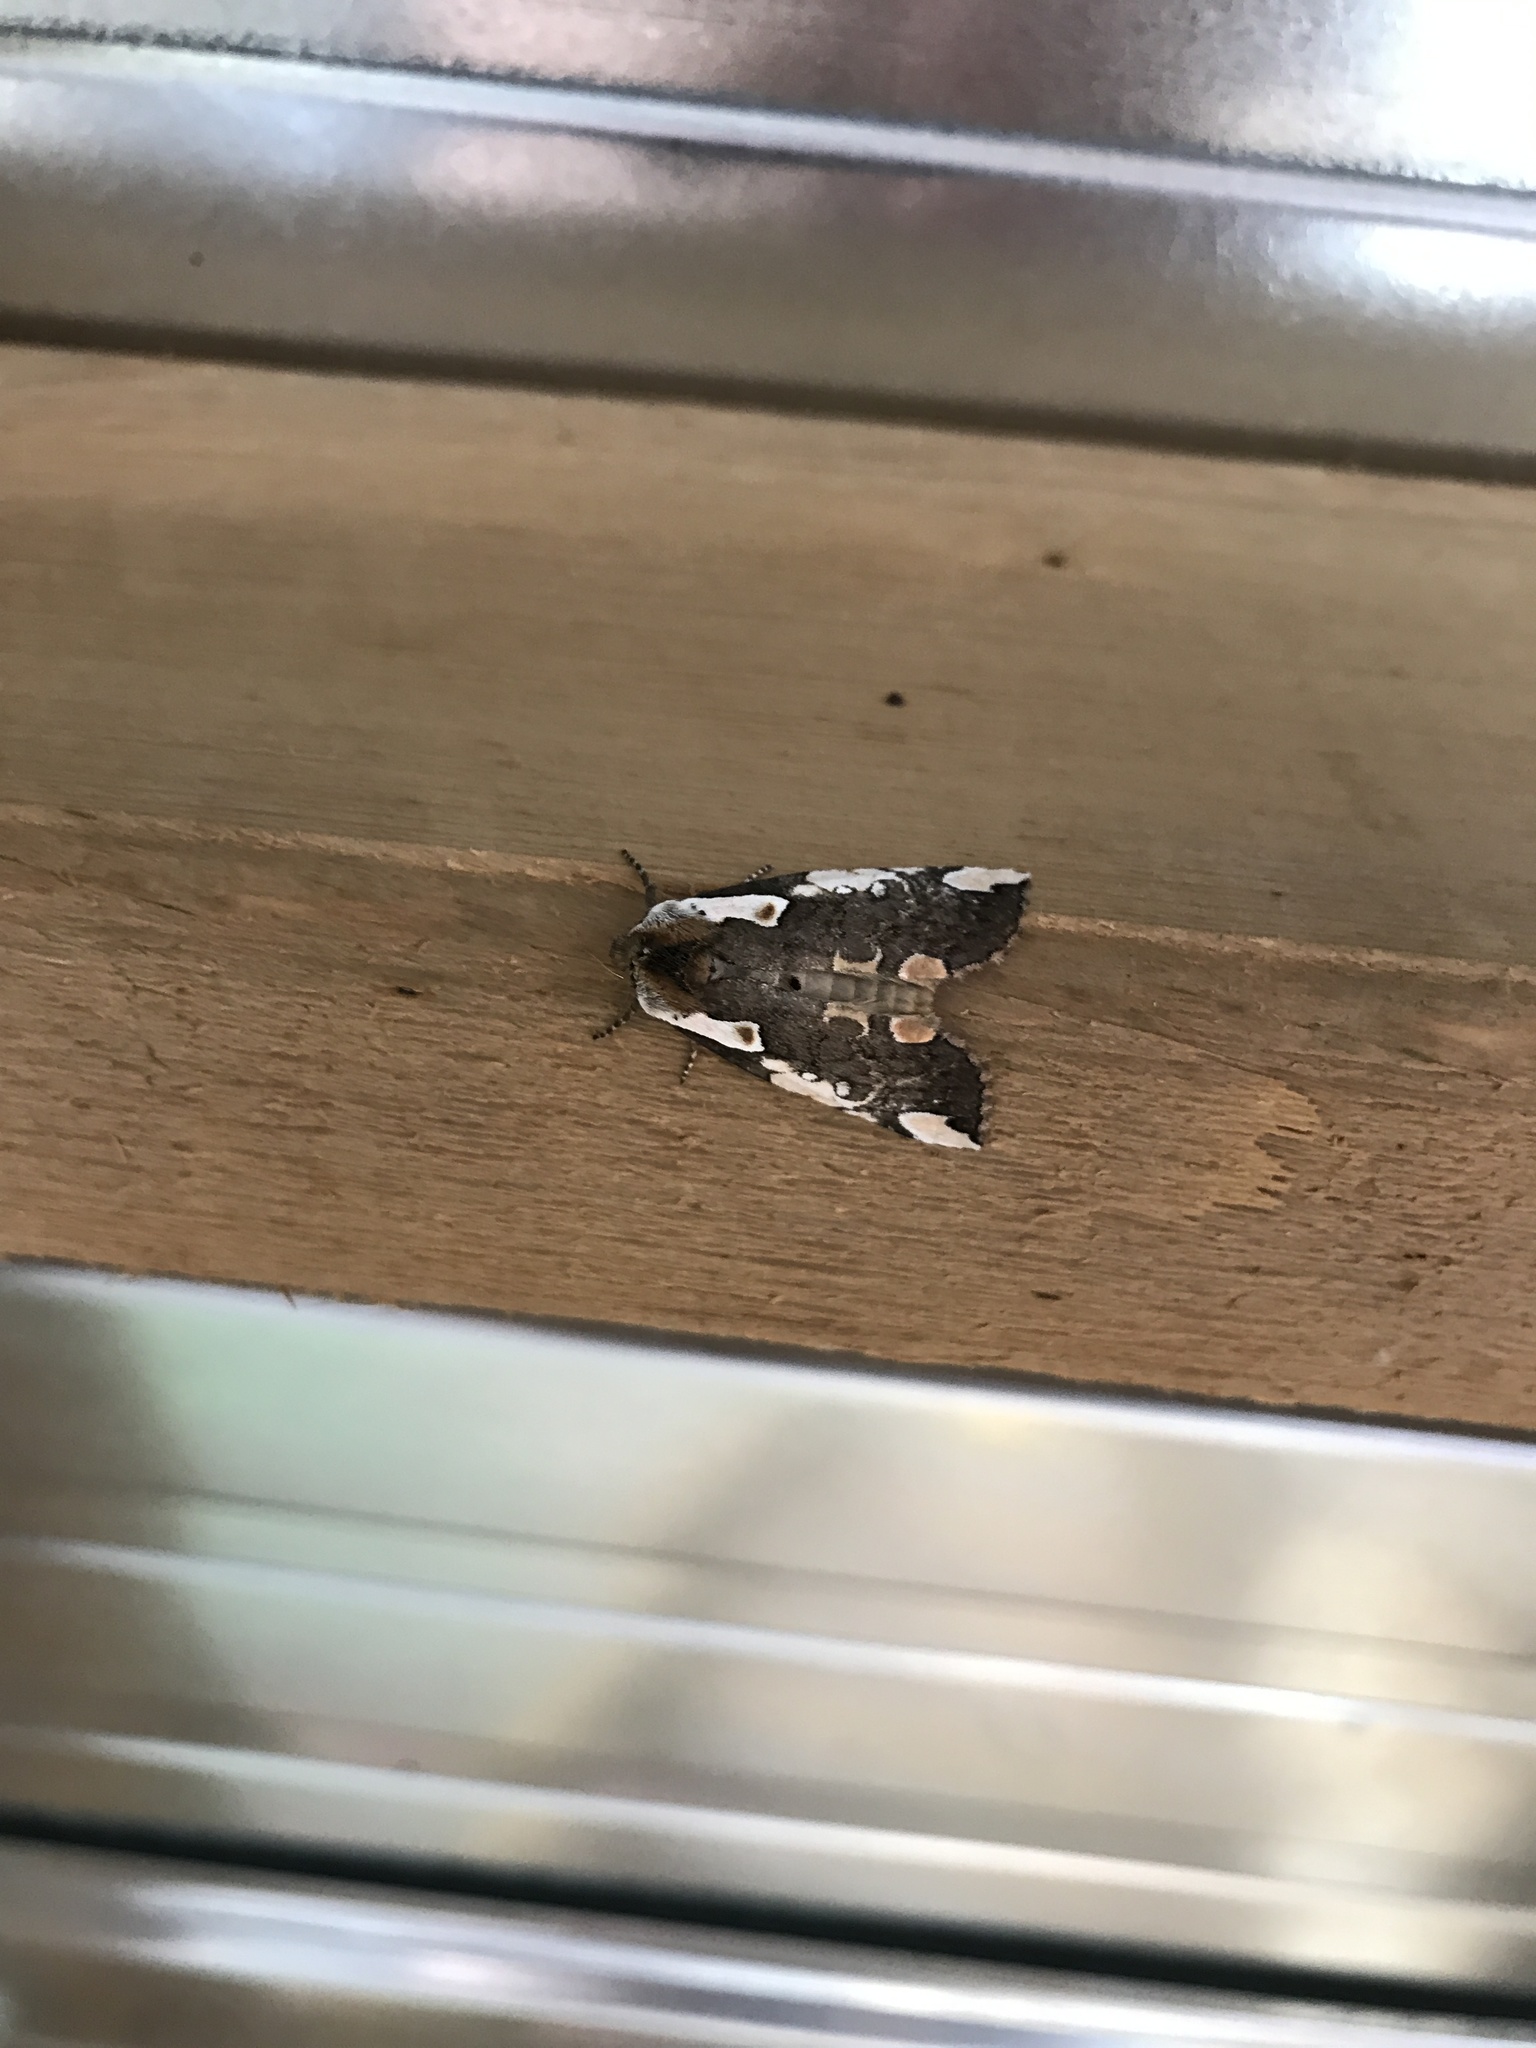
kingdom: Animalia
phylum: Arthropoda
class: Insecta
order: Lepidoptera
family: Drepanidae
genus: Euthyatira
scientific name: Euthyatira pudens
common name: Dogwood thyatirid moth
